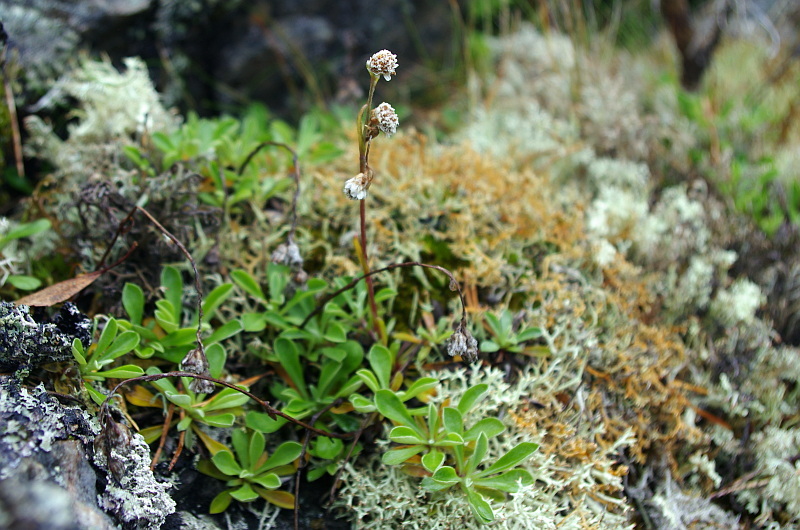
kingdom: Plantae
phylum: Tracheophyta
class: Magnoliopsida
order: Asterales
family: Asteraceae
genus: Antennaria
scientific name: Antennaria dioica
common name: Mountain everlasting
